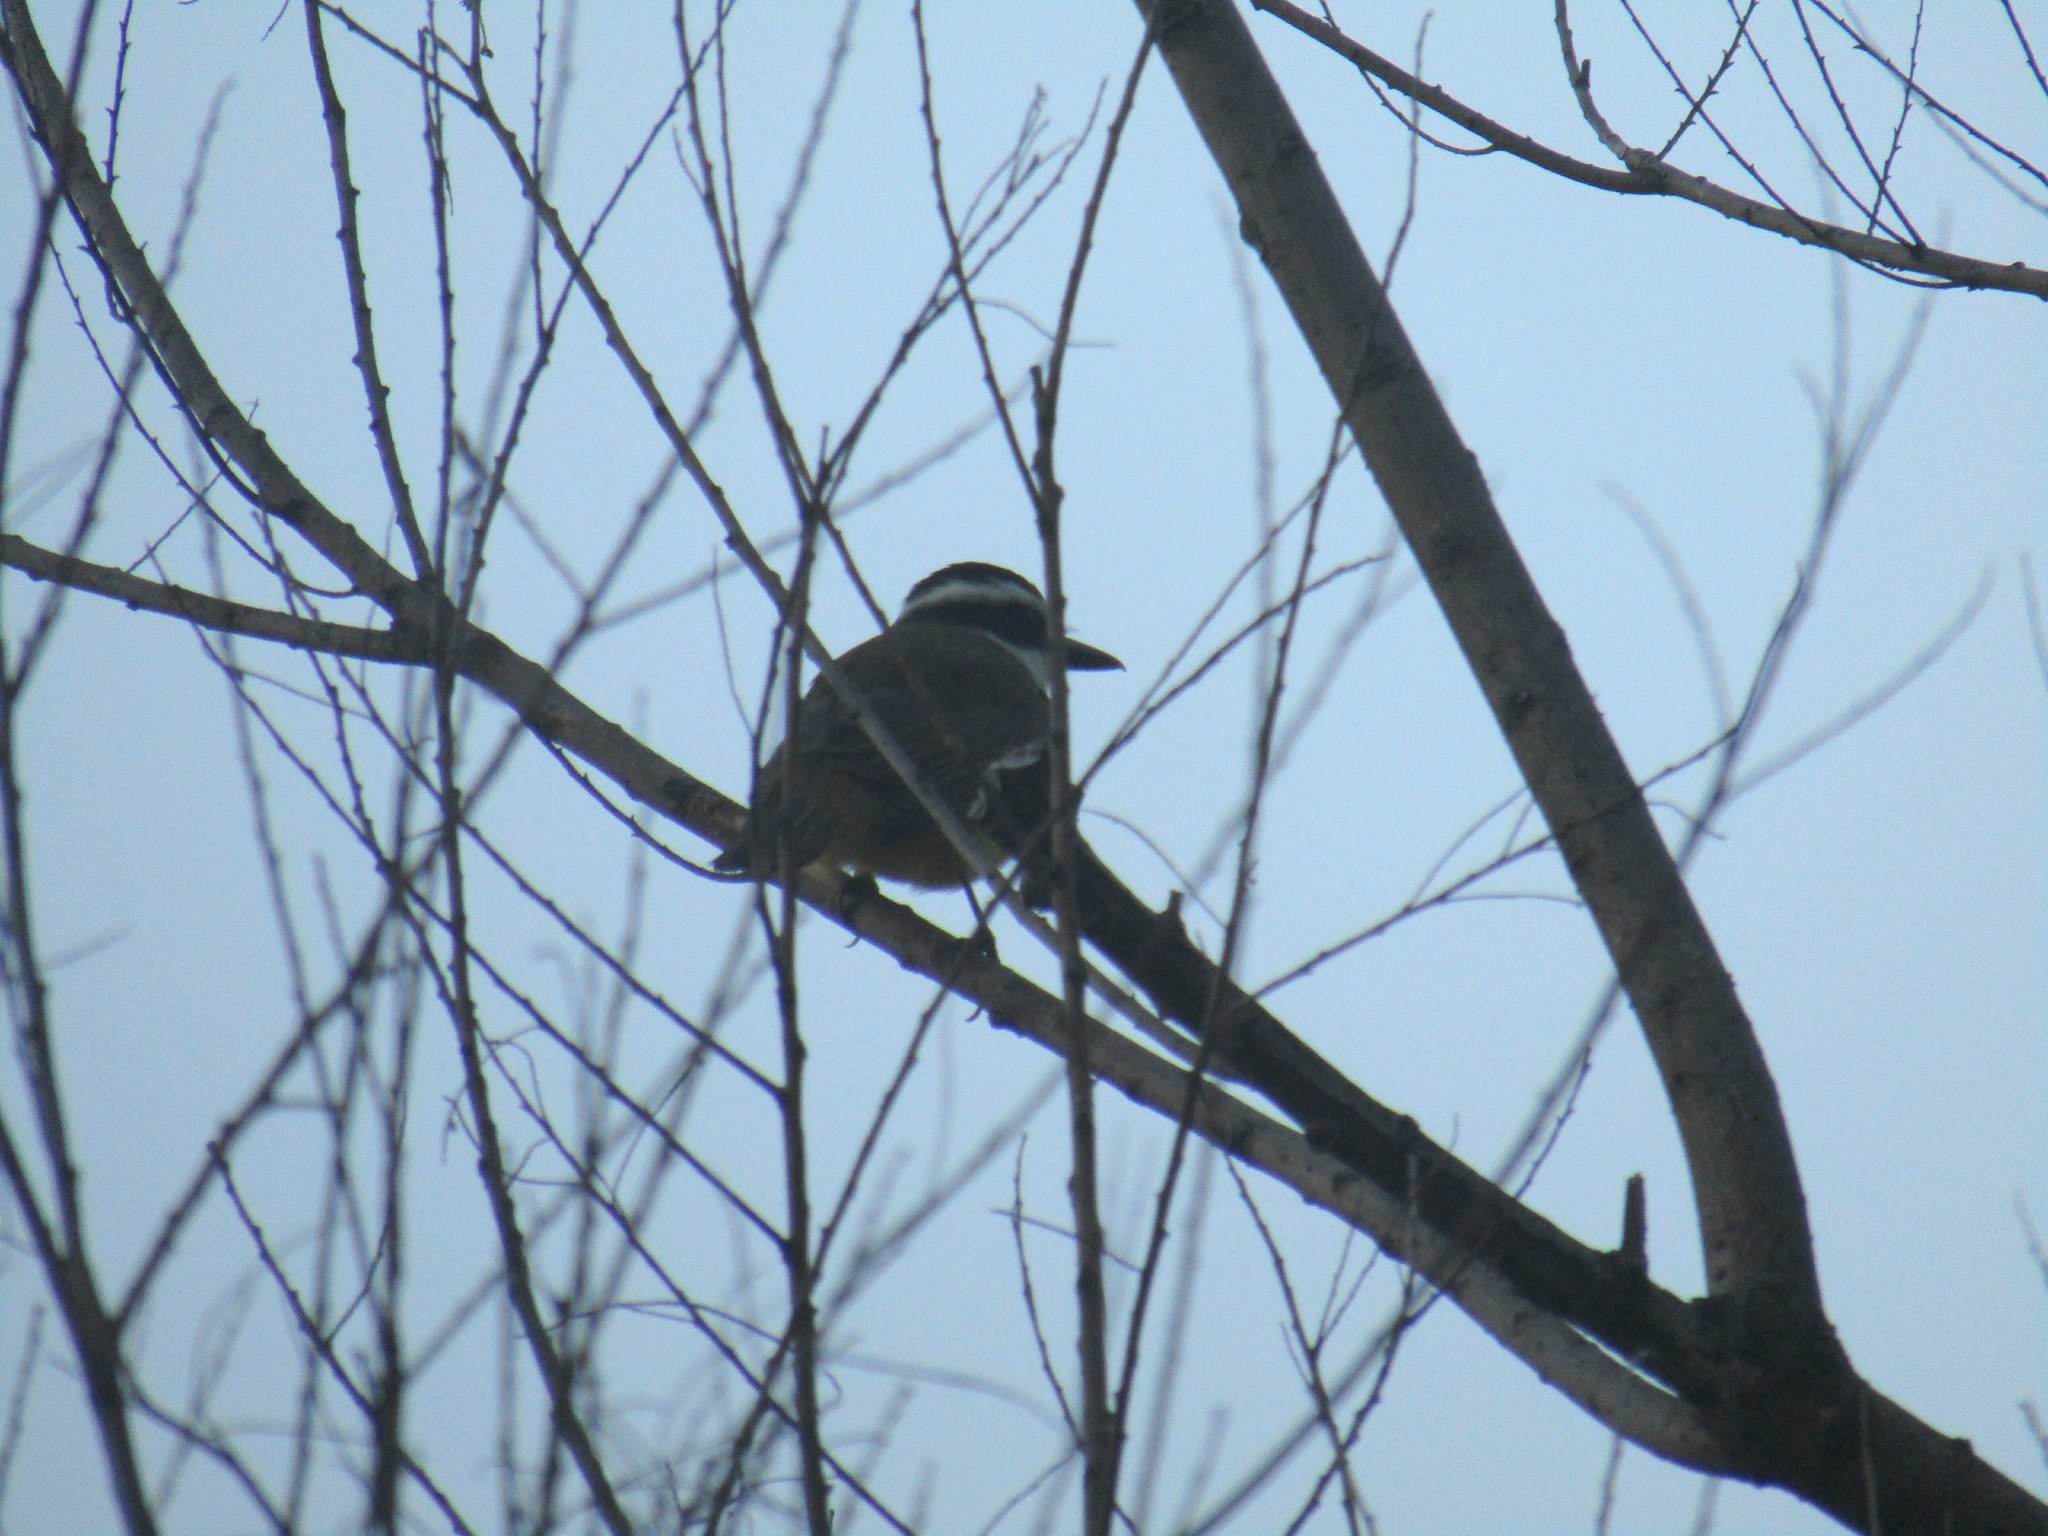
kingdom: Animalia
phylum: Chordata
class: Aves
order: Passeriformes
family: Tyrannidae
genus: Pitangus
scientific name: Pitangus sulphuratus
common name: Great kiskadee
